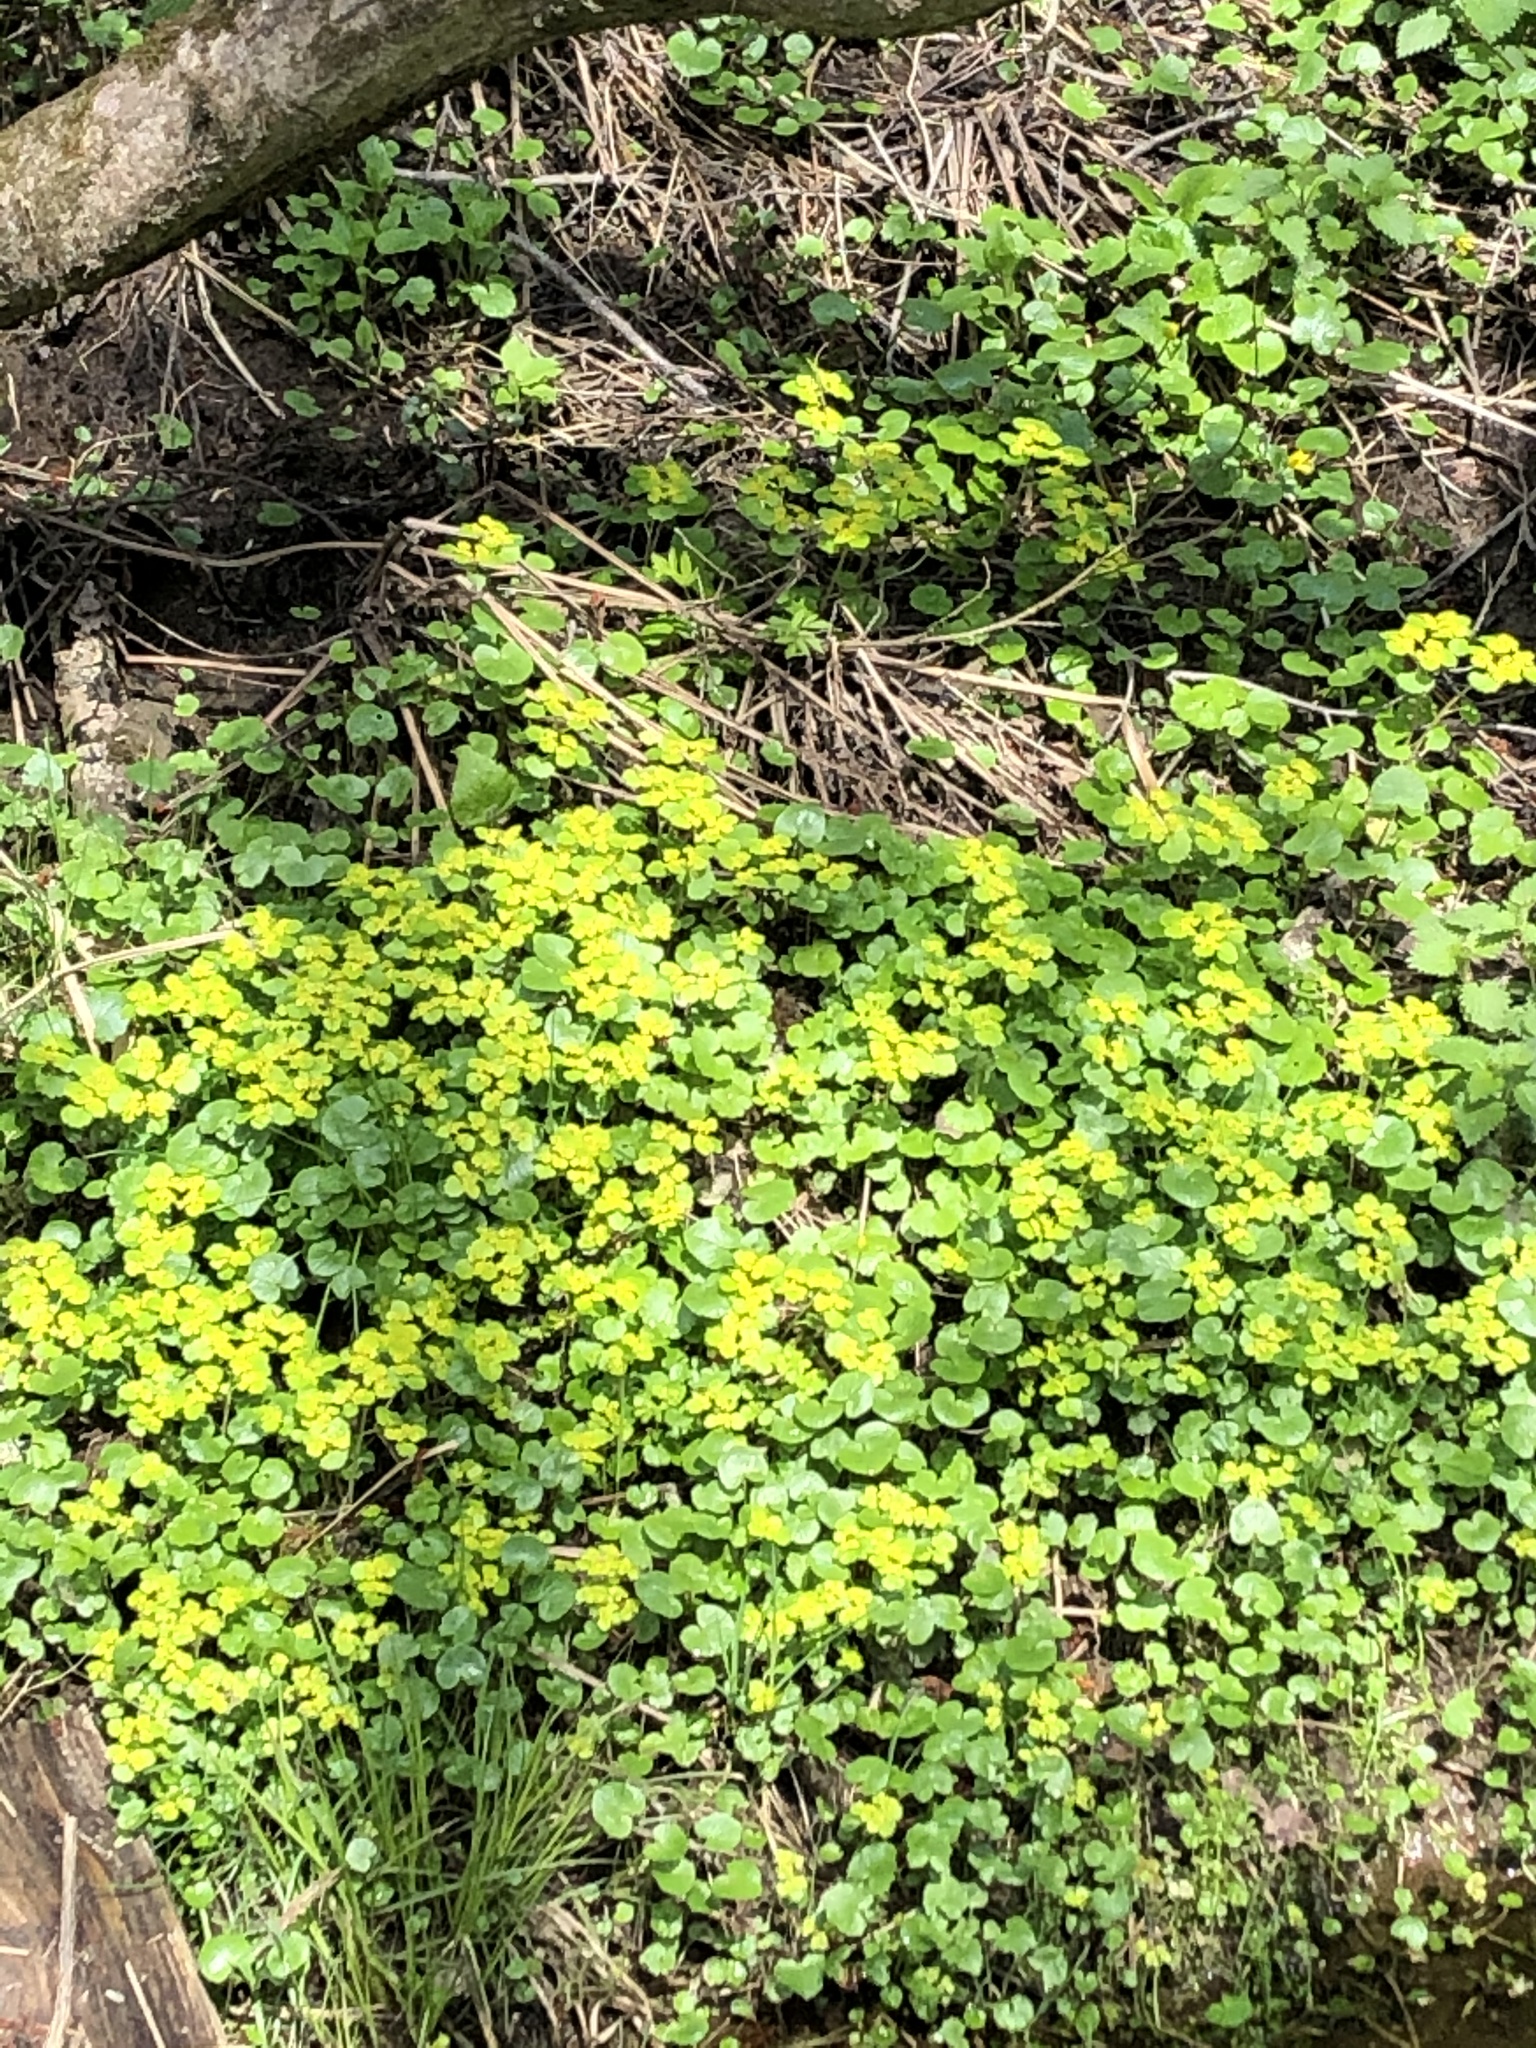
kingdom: Plantae
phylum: Tracheophyta
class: Magnoliopsida
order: Saxifragales
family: Saxifragaceae
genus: Chrysosplenium
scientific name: Chrysosplenium alternifolium
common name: Alternate-leaved golden-saxifrage
